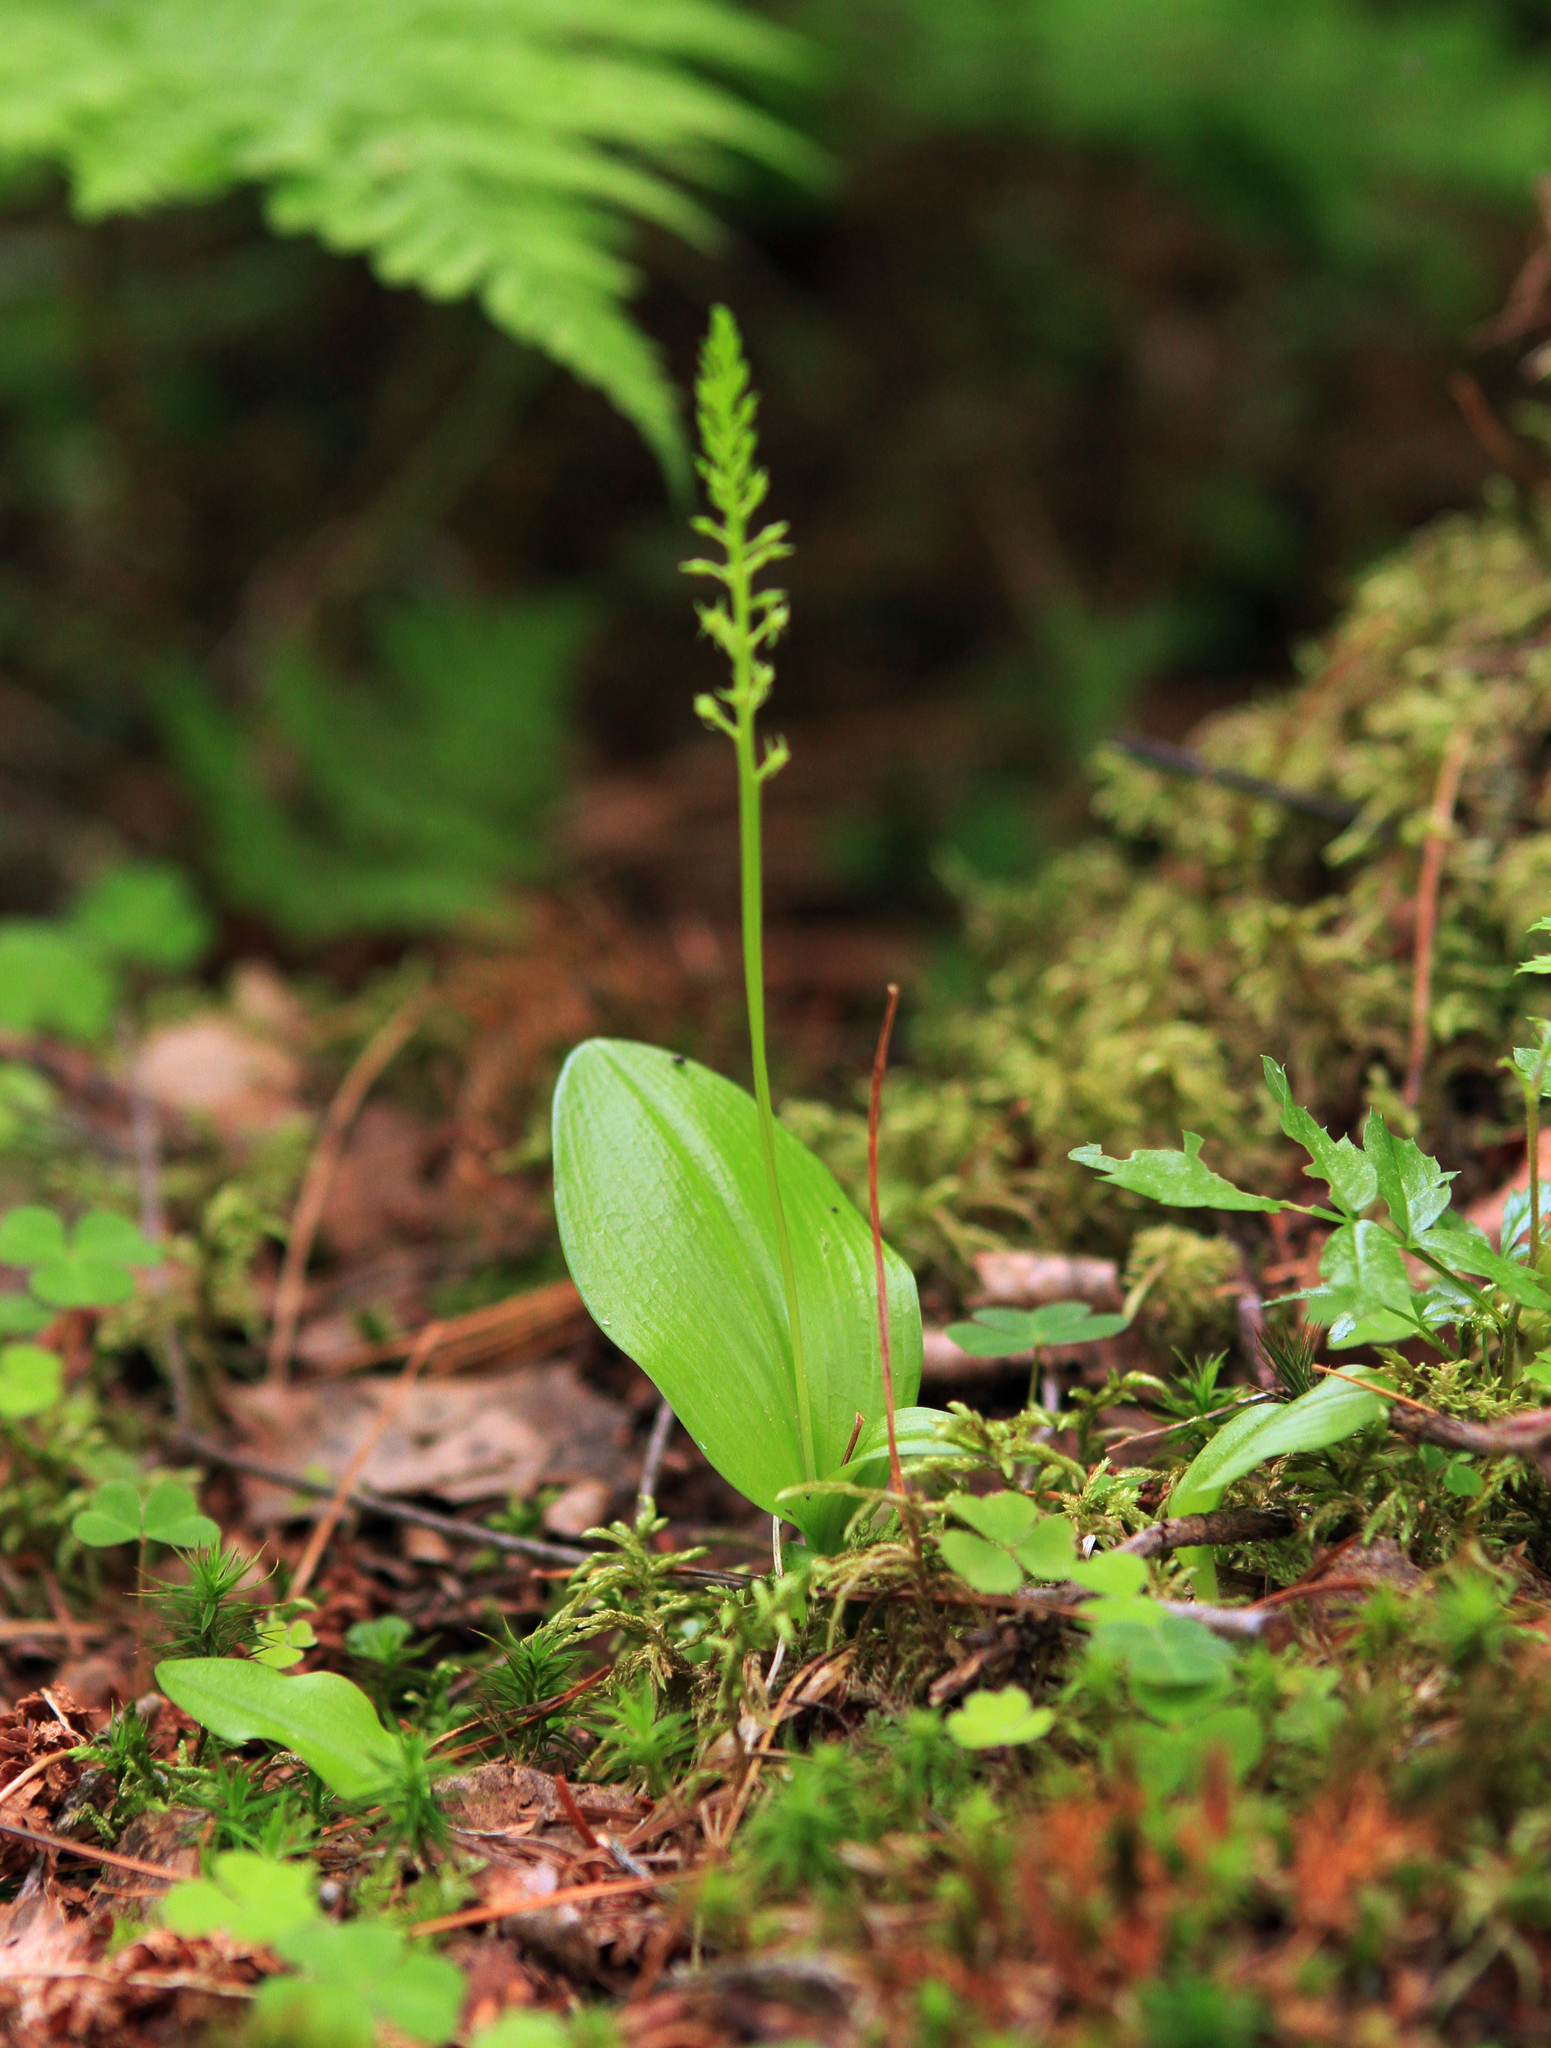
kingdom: Plantae
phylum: Tracheophyta
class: Liliopsida
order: Asparagales
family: Orchidaceae
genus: Malaxis
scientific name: Malaxis monophyllos
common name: White adder's-mouth
